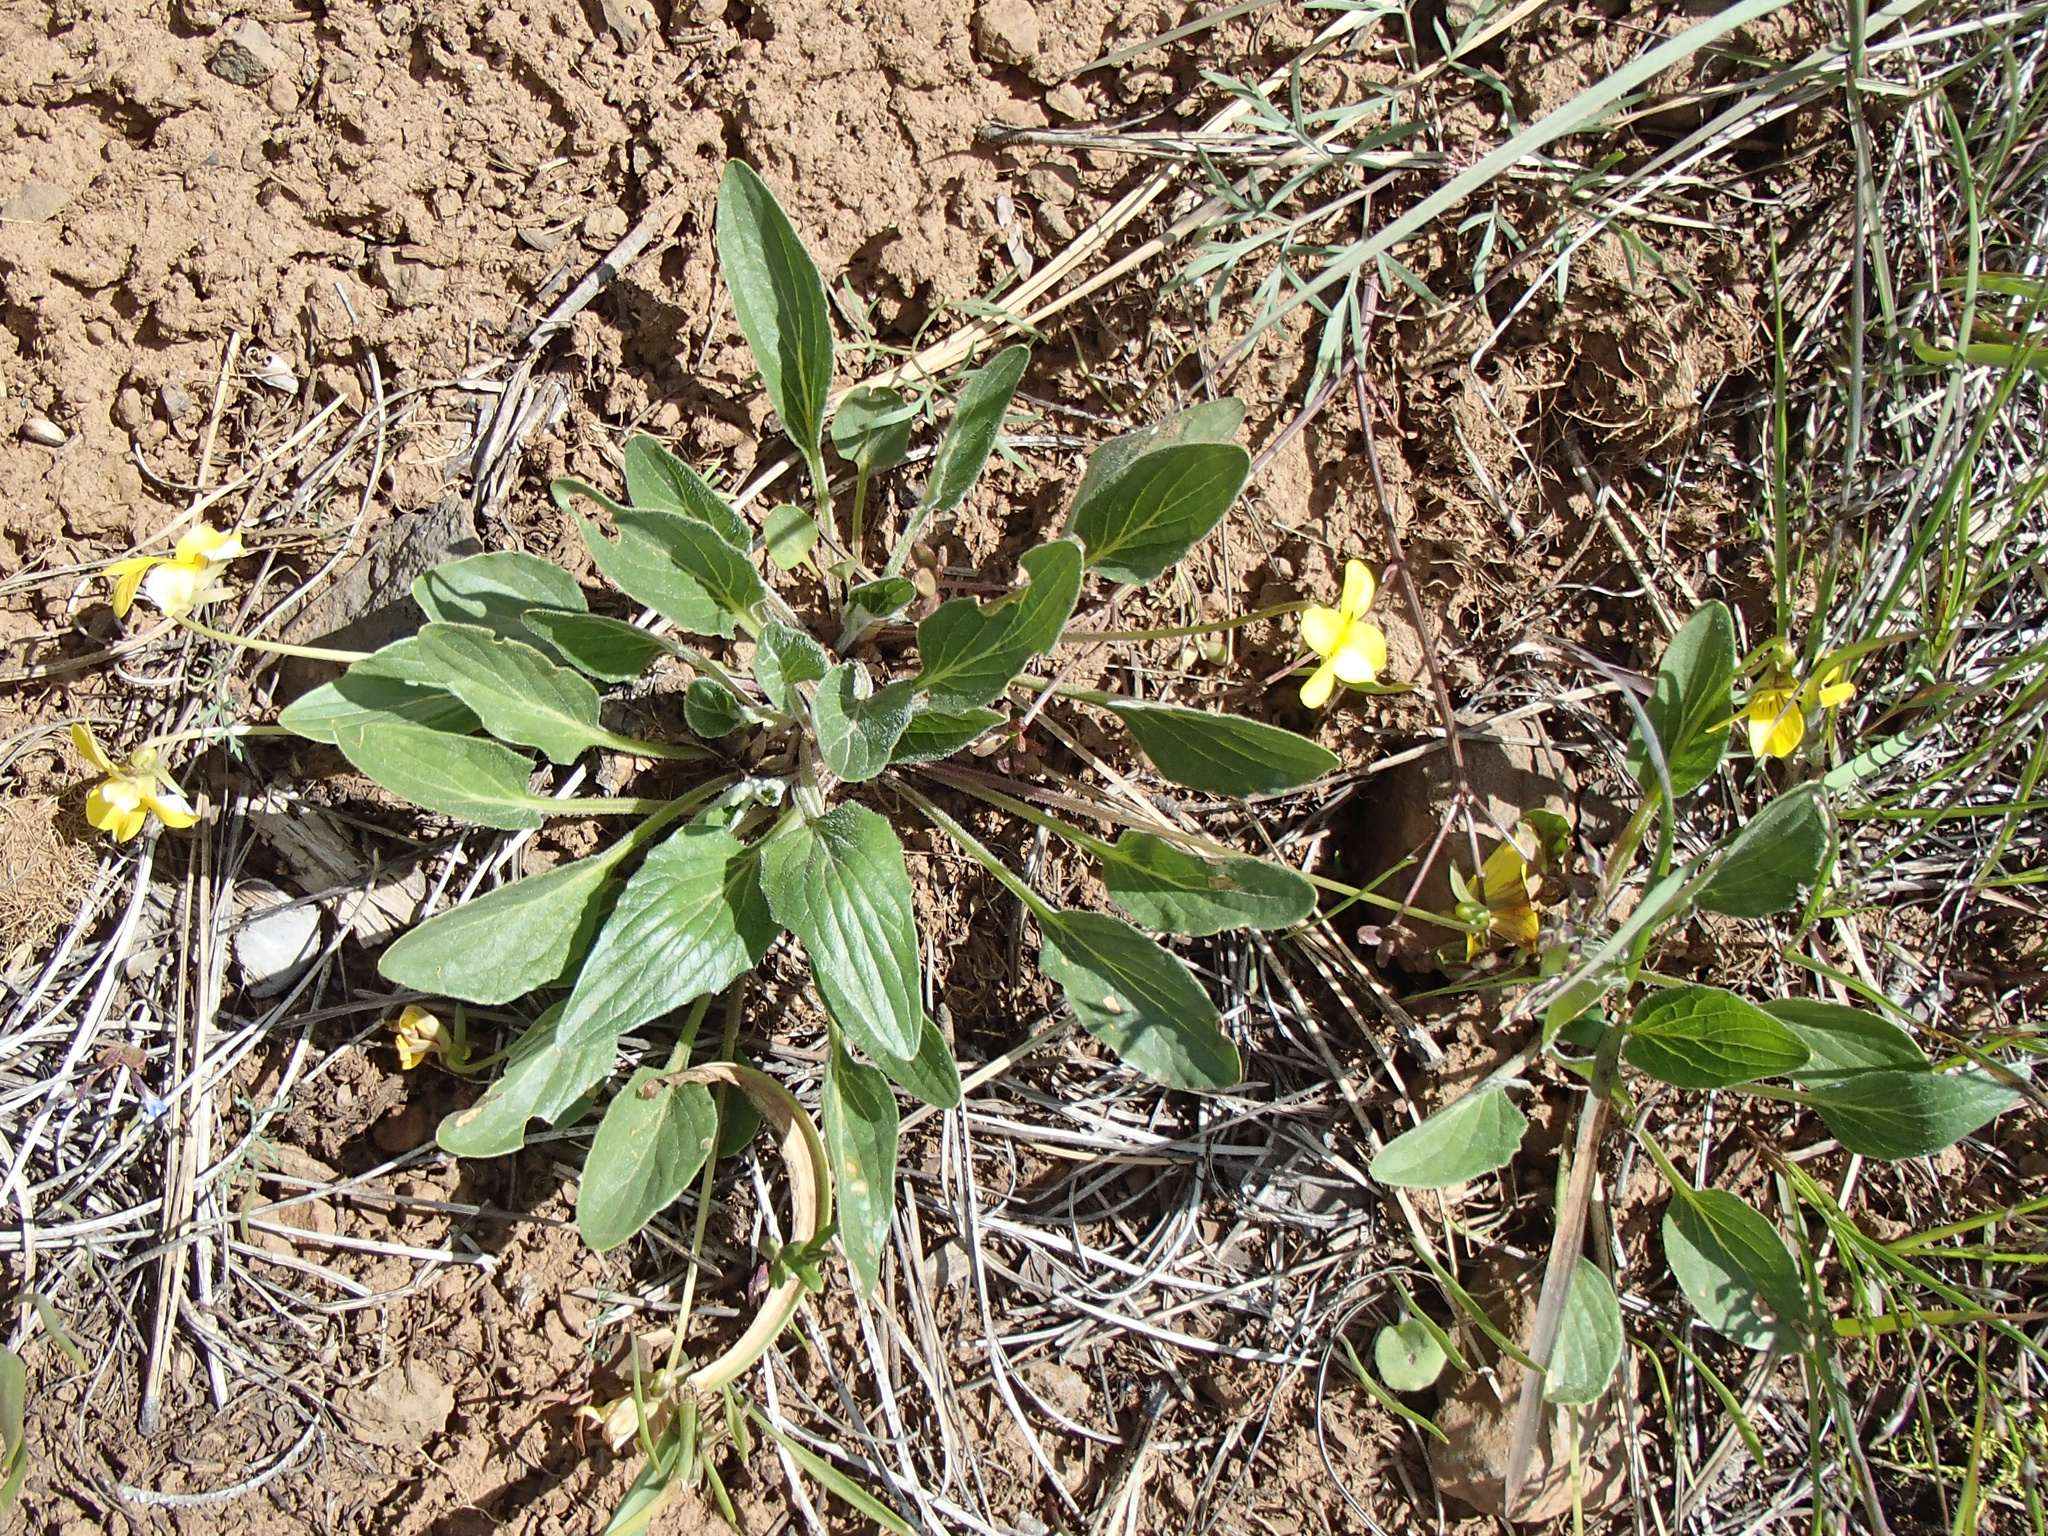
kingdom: Plantae
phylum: Tracheophyta
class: Magnoliopsida
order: Malpighiales
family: Violaceae
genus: Viola
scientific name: Viola praemorsa
